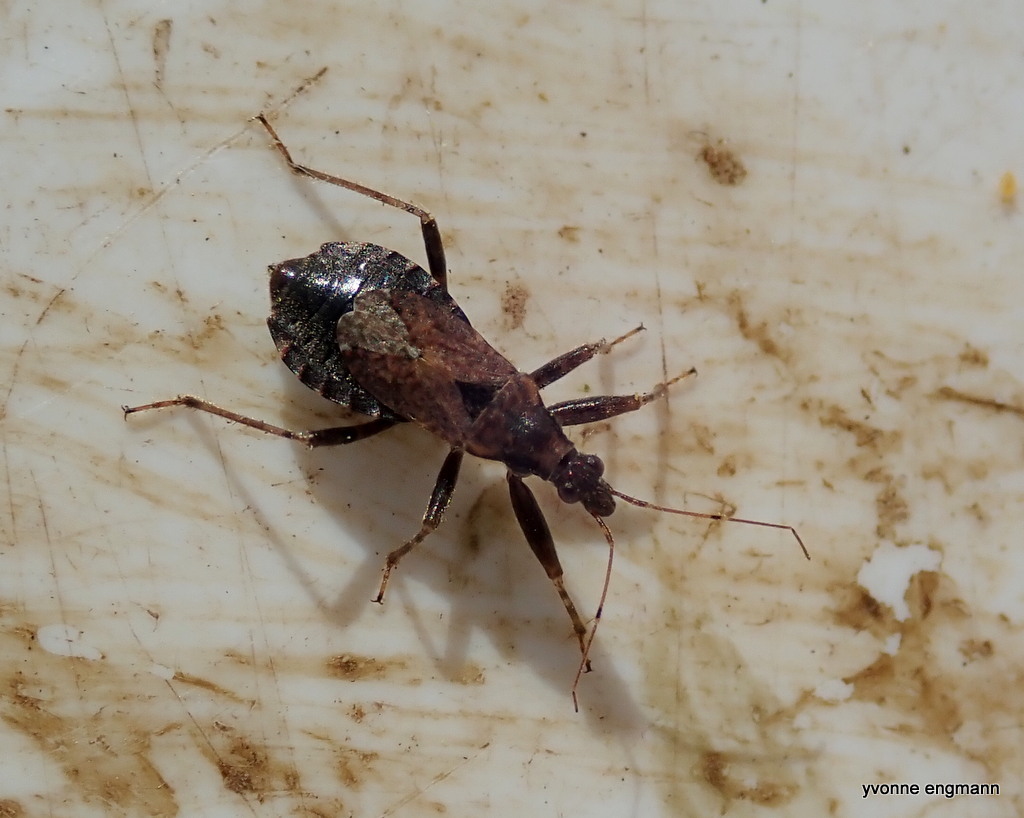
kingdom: Animalia
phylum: Arthropoda
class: Insecta
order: Hemiptera
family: Nabidae
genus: Himacerus
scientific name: Himacerus mirmicoides
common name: Ant damsel bug
